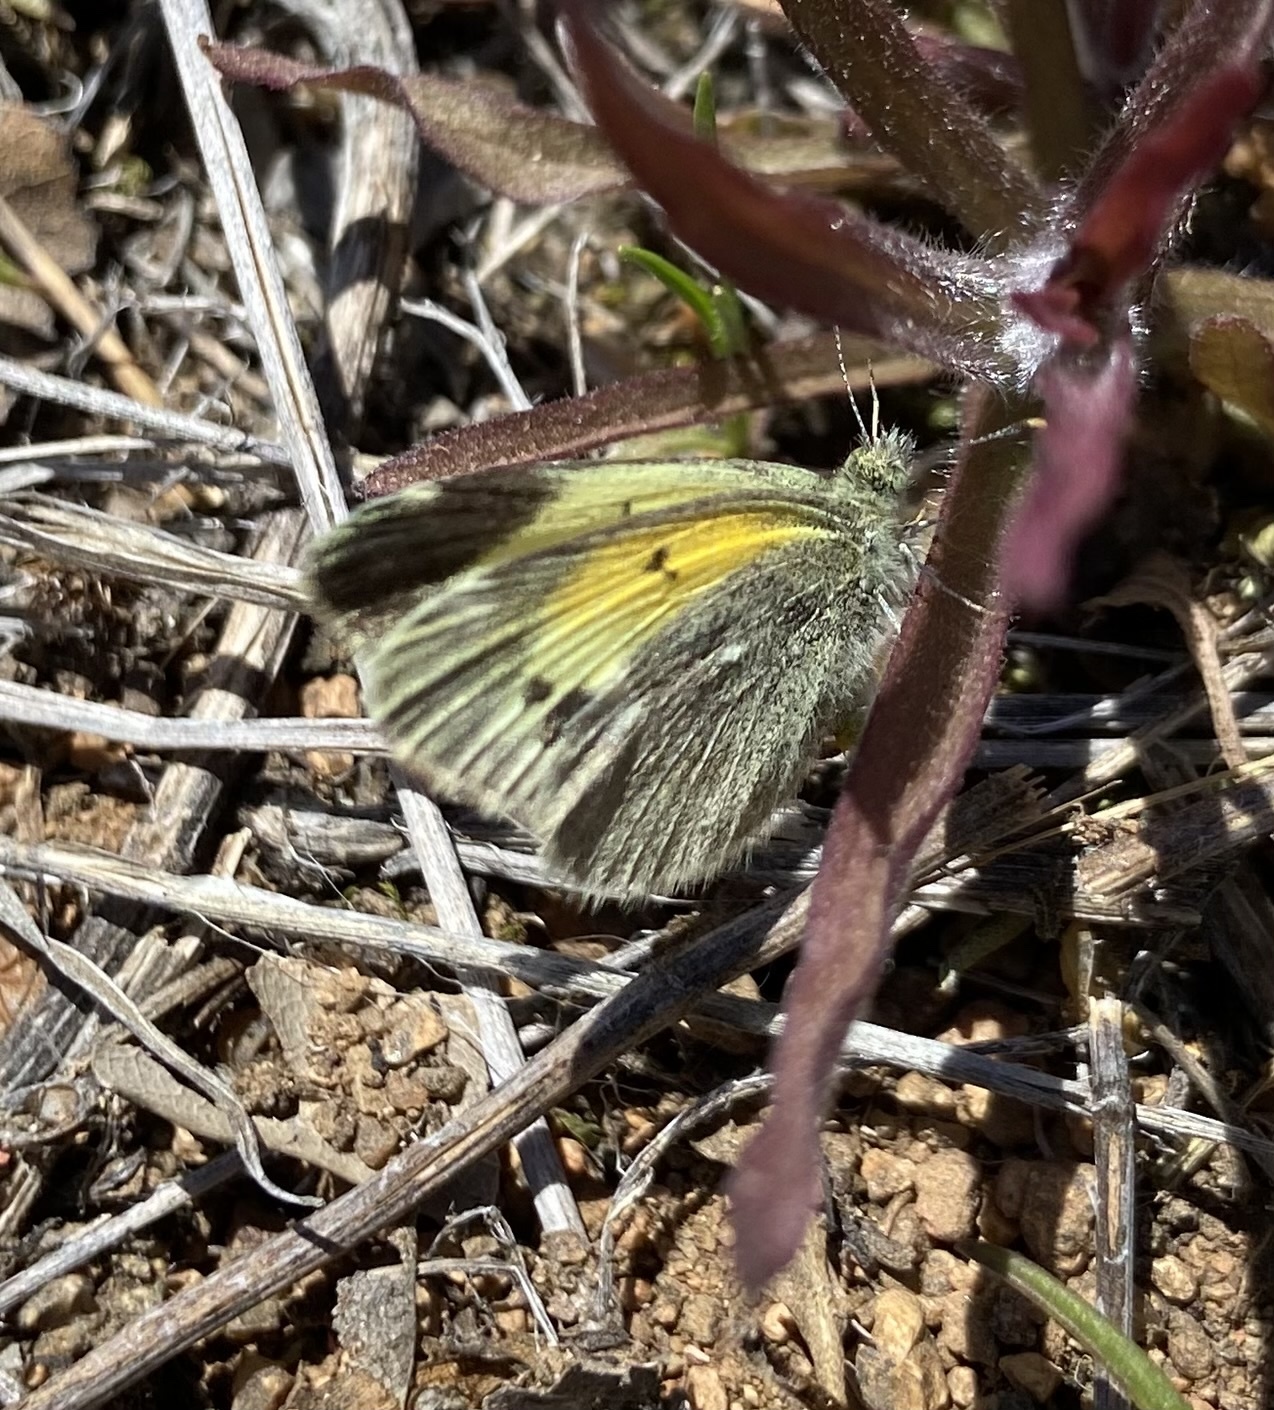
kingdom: Animalia
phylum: Arthropoda
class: Insecta
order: Lepidoptera
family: Pieridae
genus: Nathalis
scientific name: Nathalis iole
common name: Dainty sulphur
